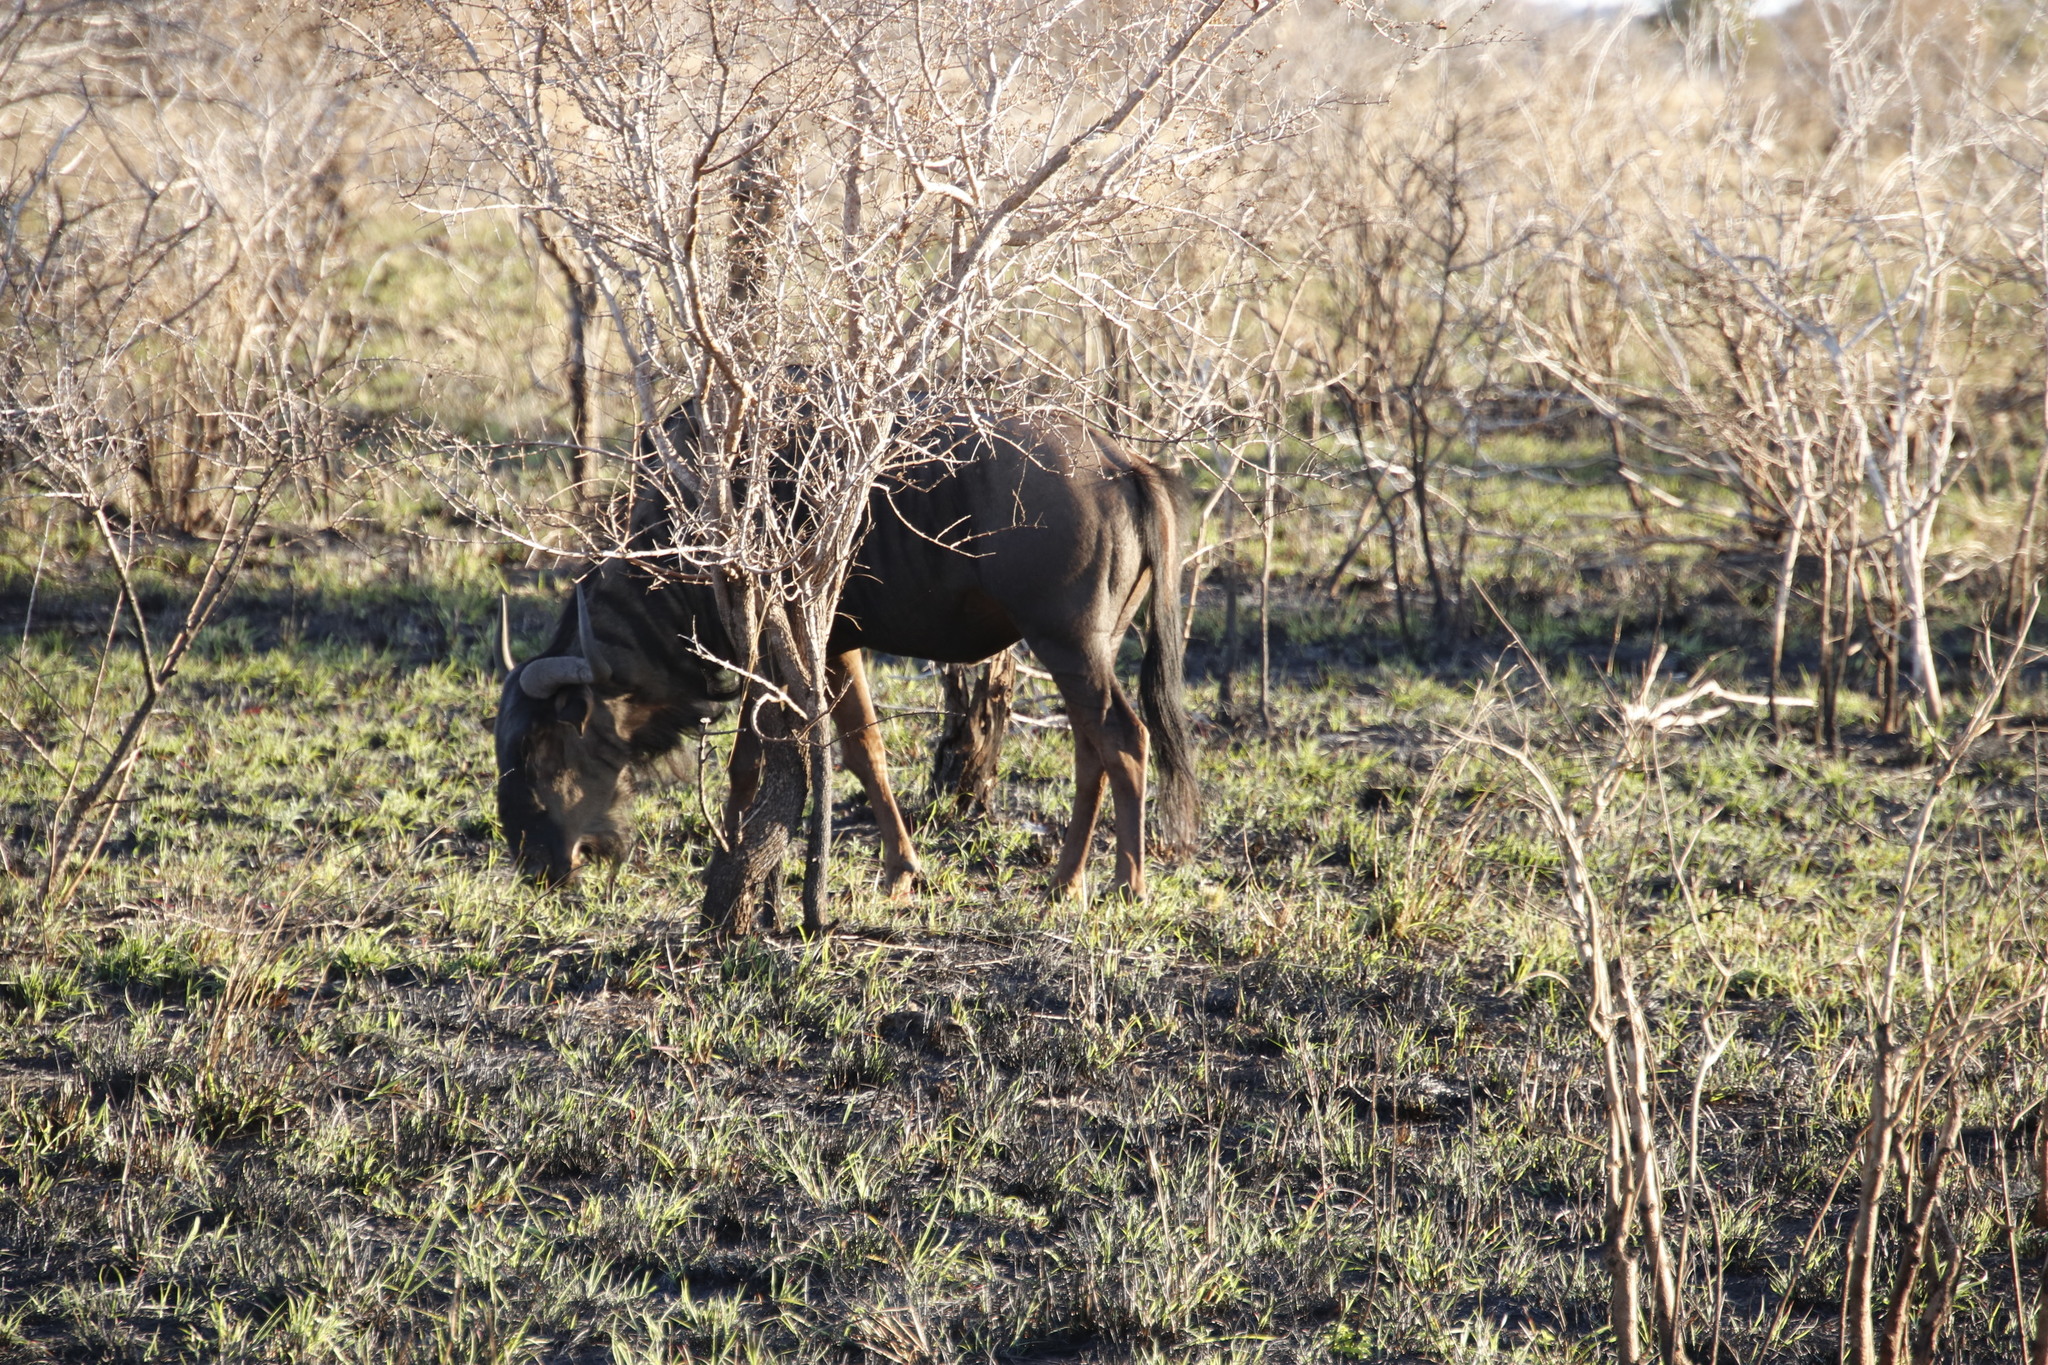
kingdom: Animalia
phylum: Chordata
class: Mammalia
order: Artiodactyla
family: Bovidae
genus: Connochaetes
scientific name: Connochaetes taurinus
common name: Blue wildebeest
